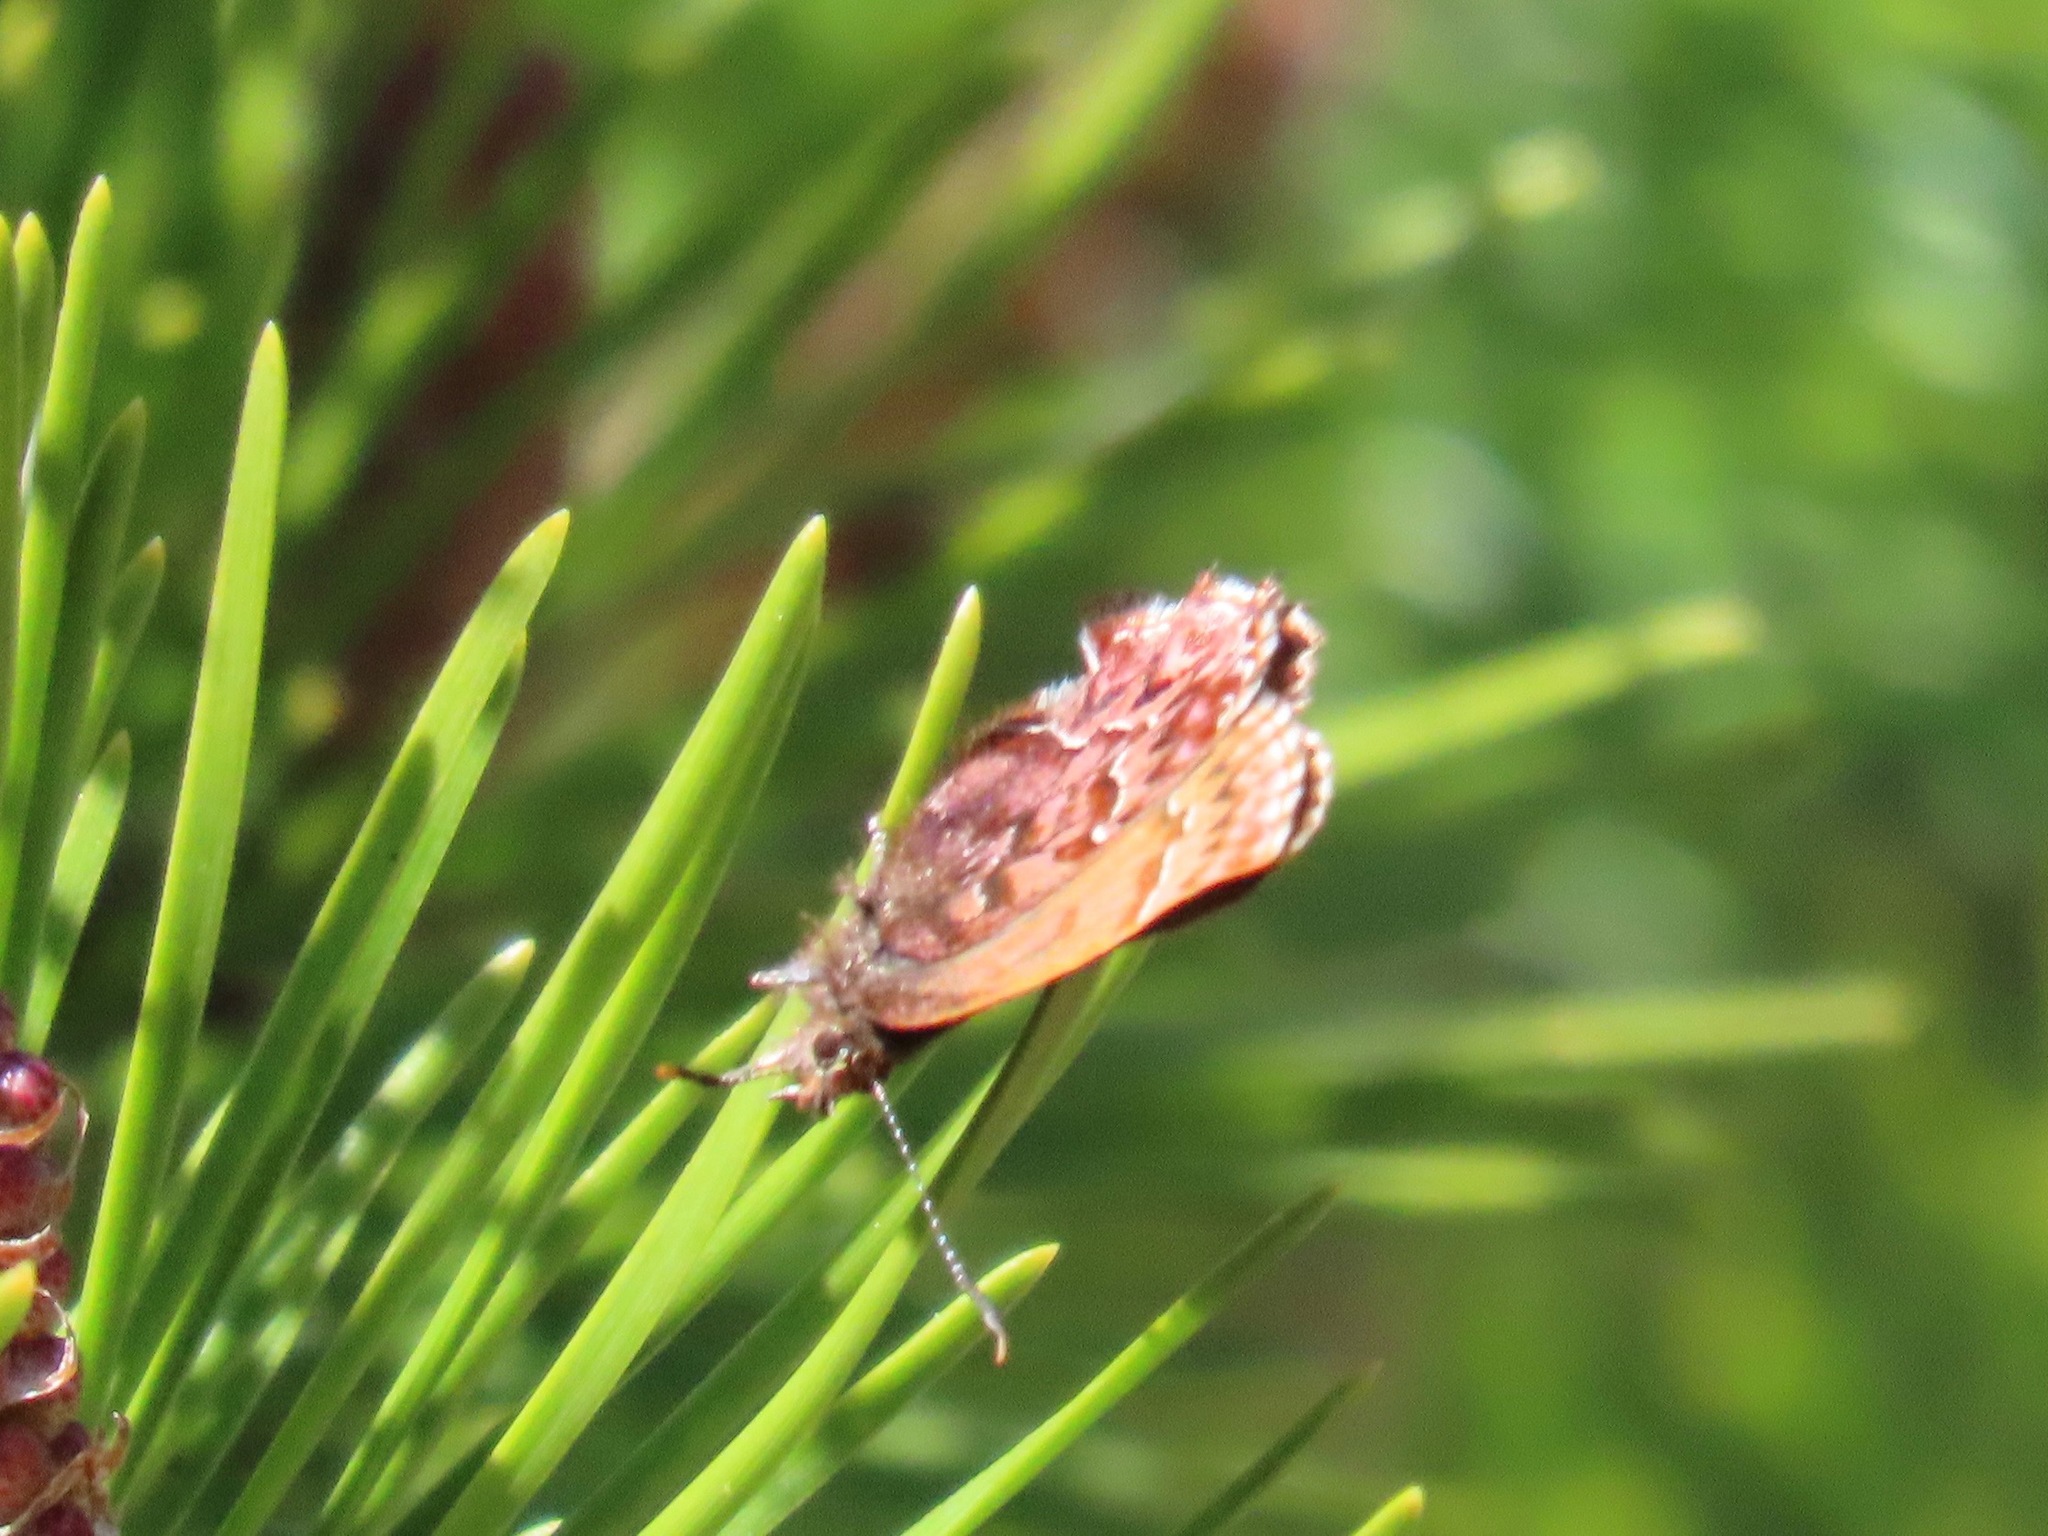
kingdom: Animalia
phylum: Arthropoda
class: Insecta
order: Lepidoptera
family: Lycaenidae
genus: Incisalia
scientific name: Incisalia eryphon
